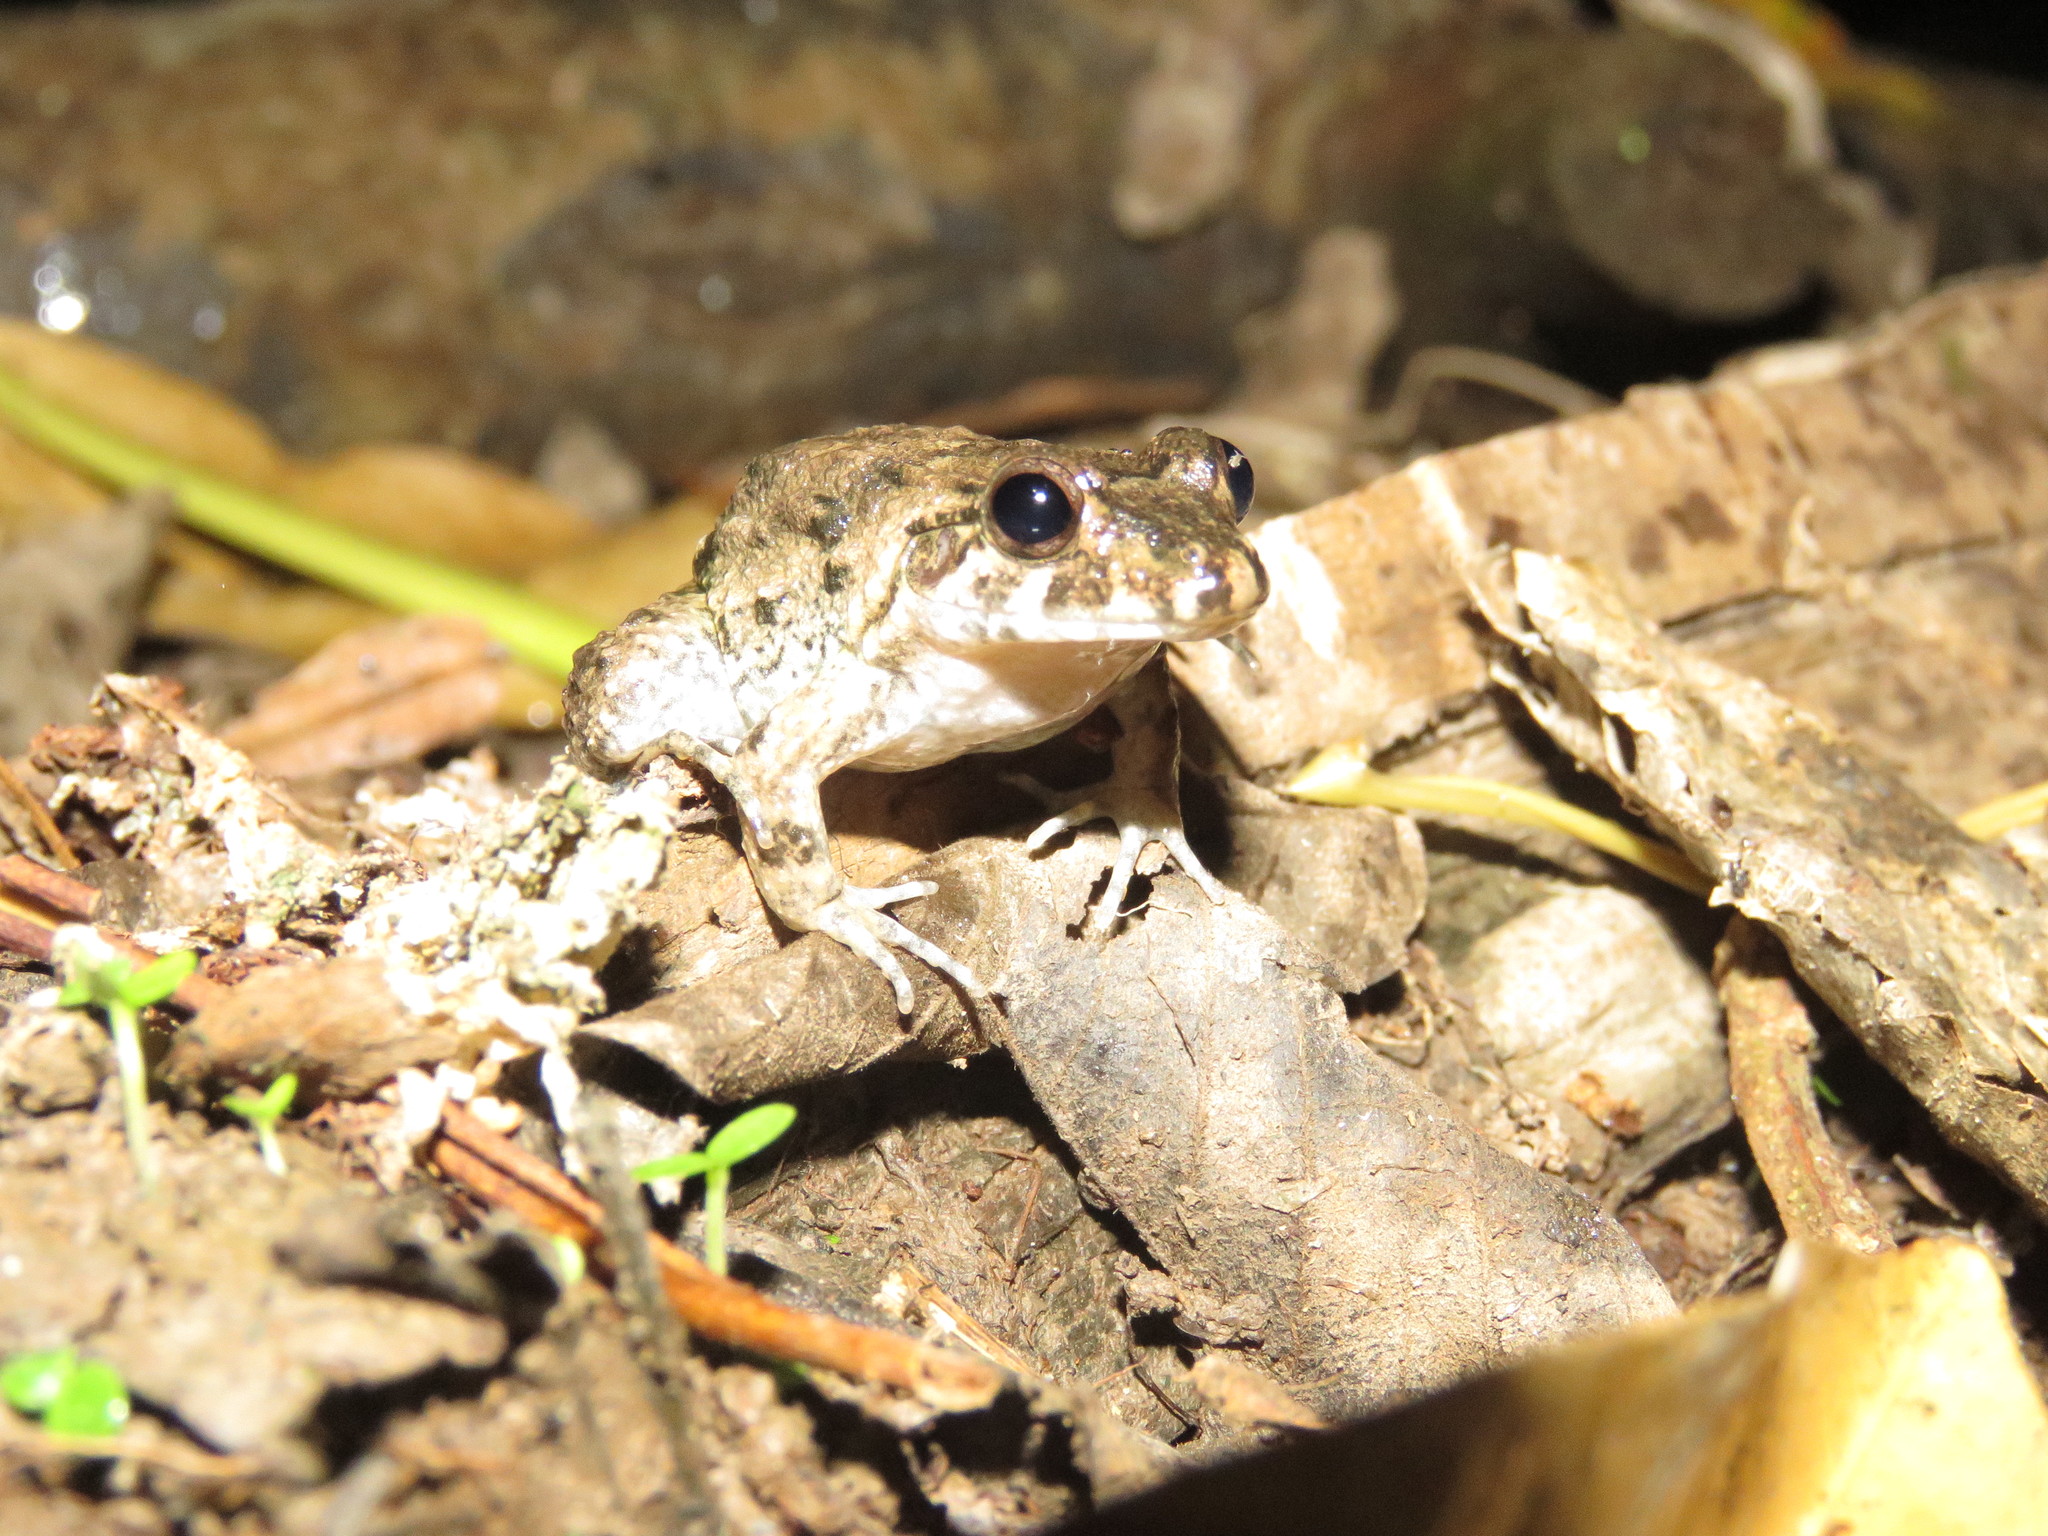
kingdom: Animalia
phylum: Chordata
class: Amphibia
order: Anura
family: Leptodactylidae
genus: Leptodactylus
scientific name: Leptodactylus petersii
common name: Peters' thin-toed frog
